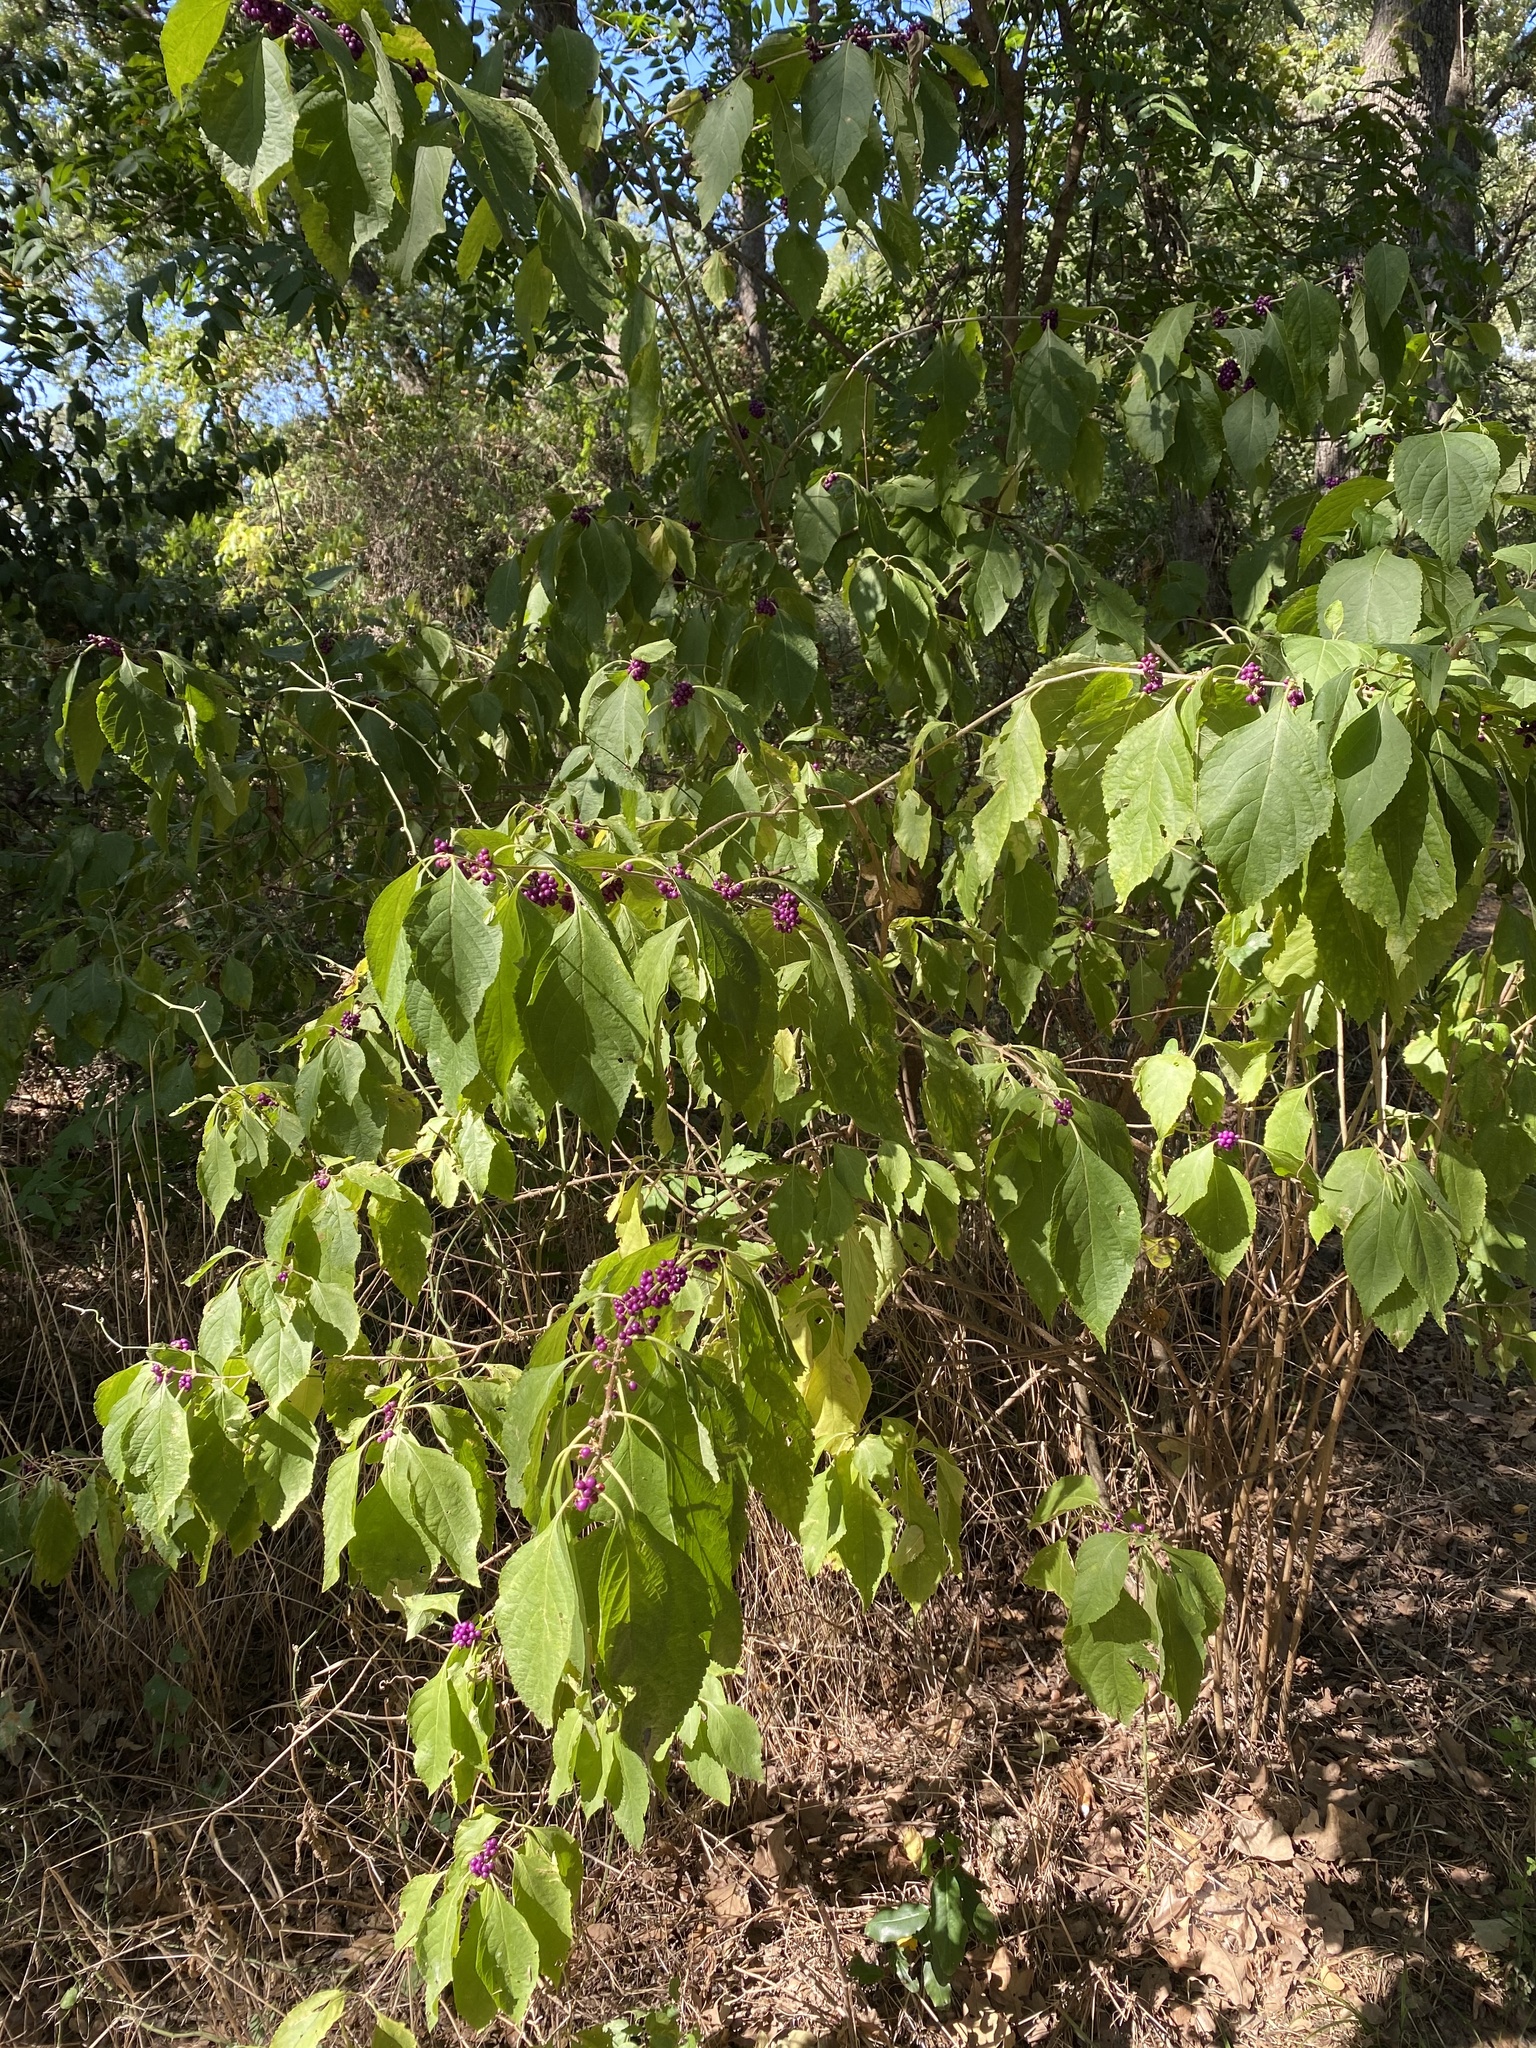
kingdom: Plantae
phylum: Tracheophyta
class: Magnoliopsida
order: Lamiales
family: Lamiaceae
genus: Callicarpa
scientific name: Callicarpa americana
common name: American beautyberry
